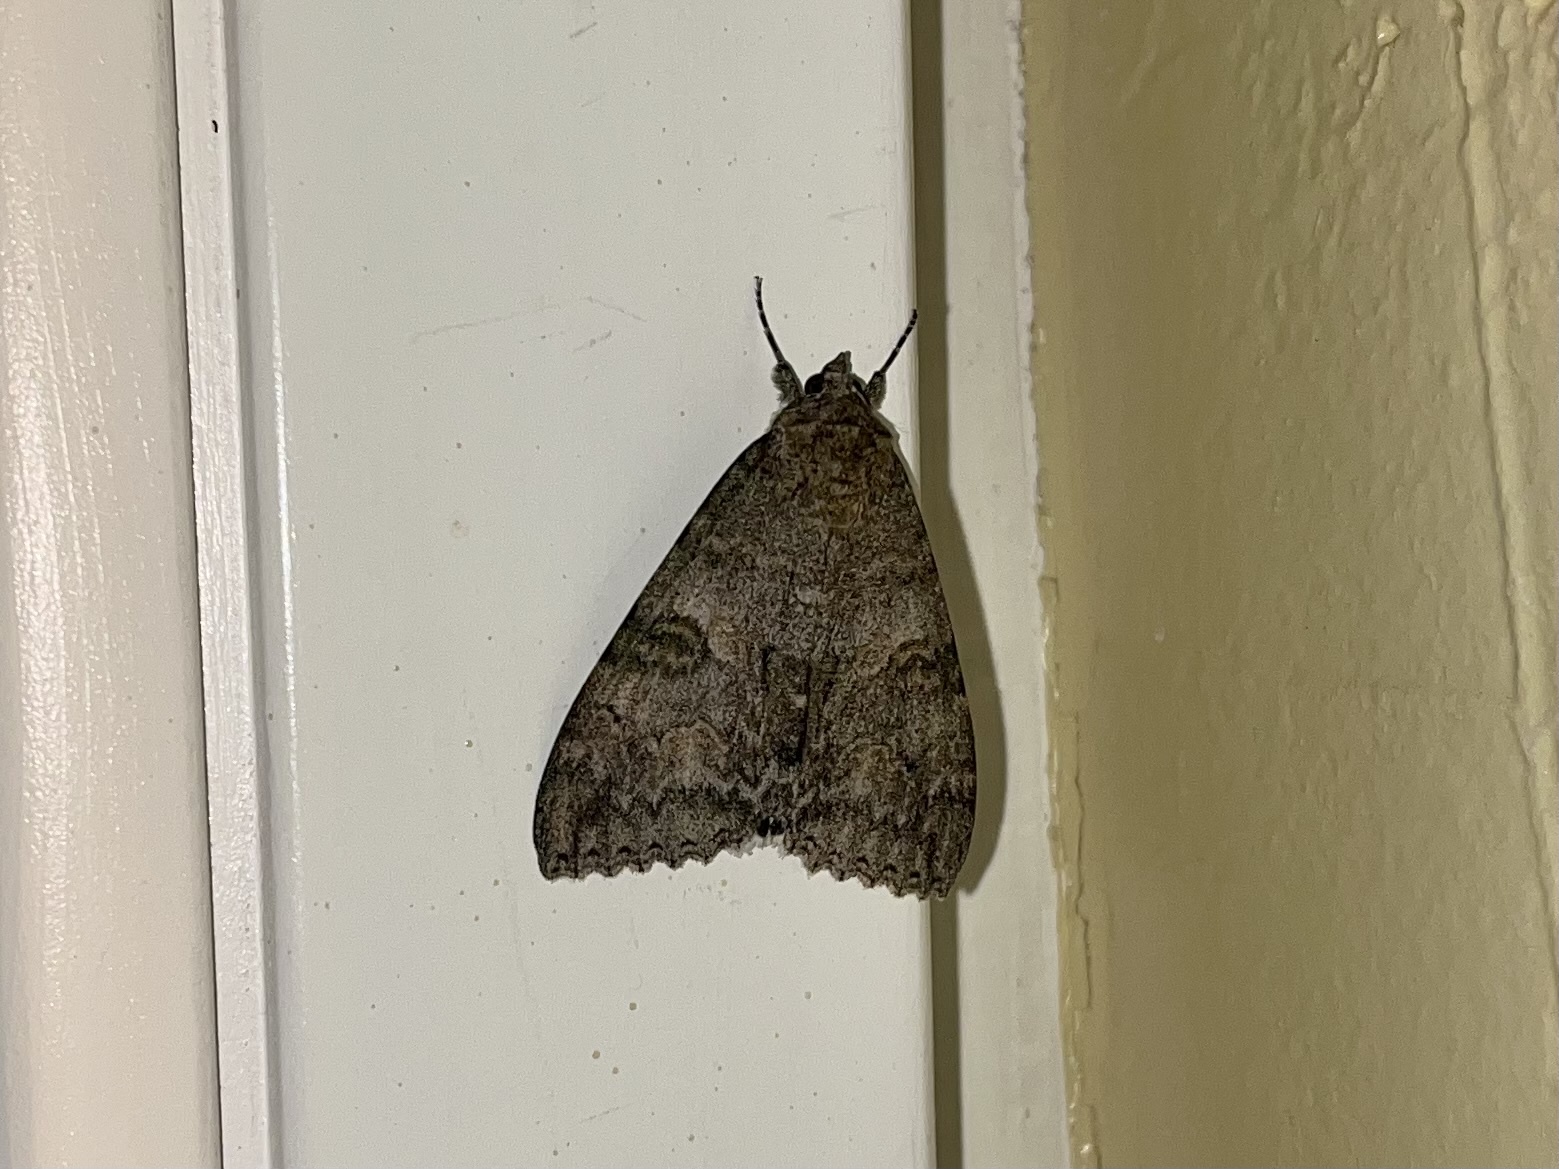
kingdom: Animalia
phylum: Arthropoda
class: Insecta
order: Lepidoptera
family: Erebidae
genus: Catocala
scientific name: Catocala nupta
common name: Red underwing
